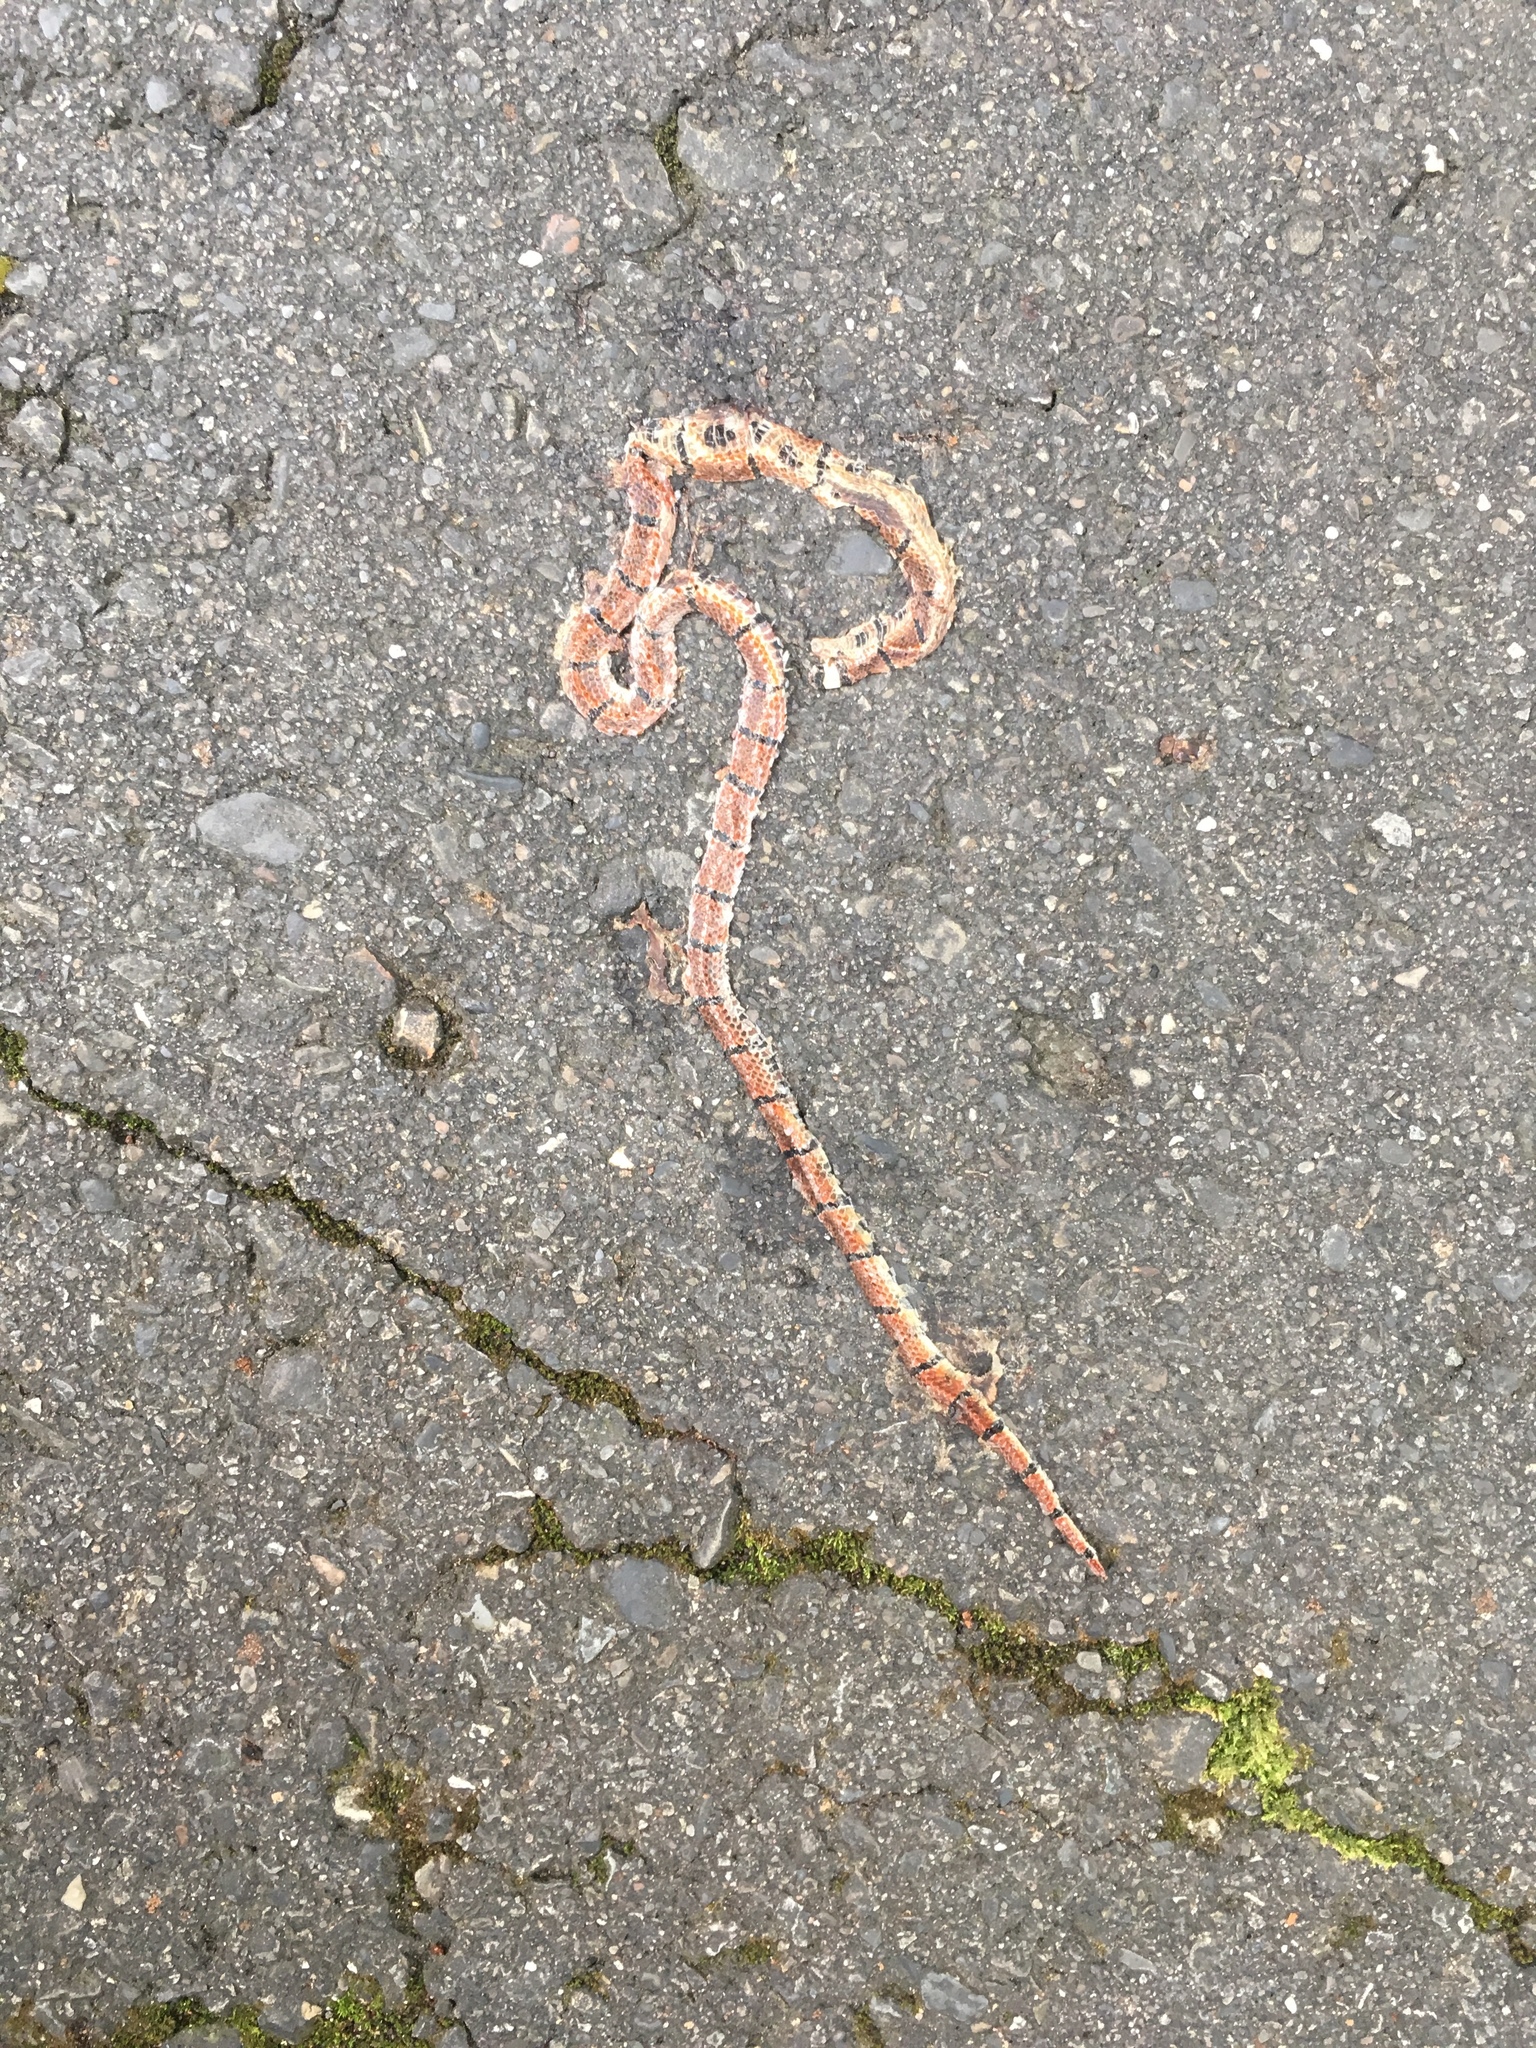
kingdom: Animalia
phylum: Chordata
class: Squamata
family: Elapidae
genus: Sinomicrurus
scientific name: Sinomicrurus swinhoei
